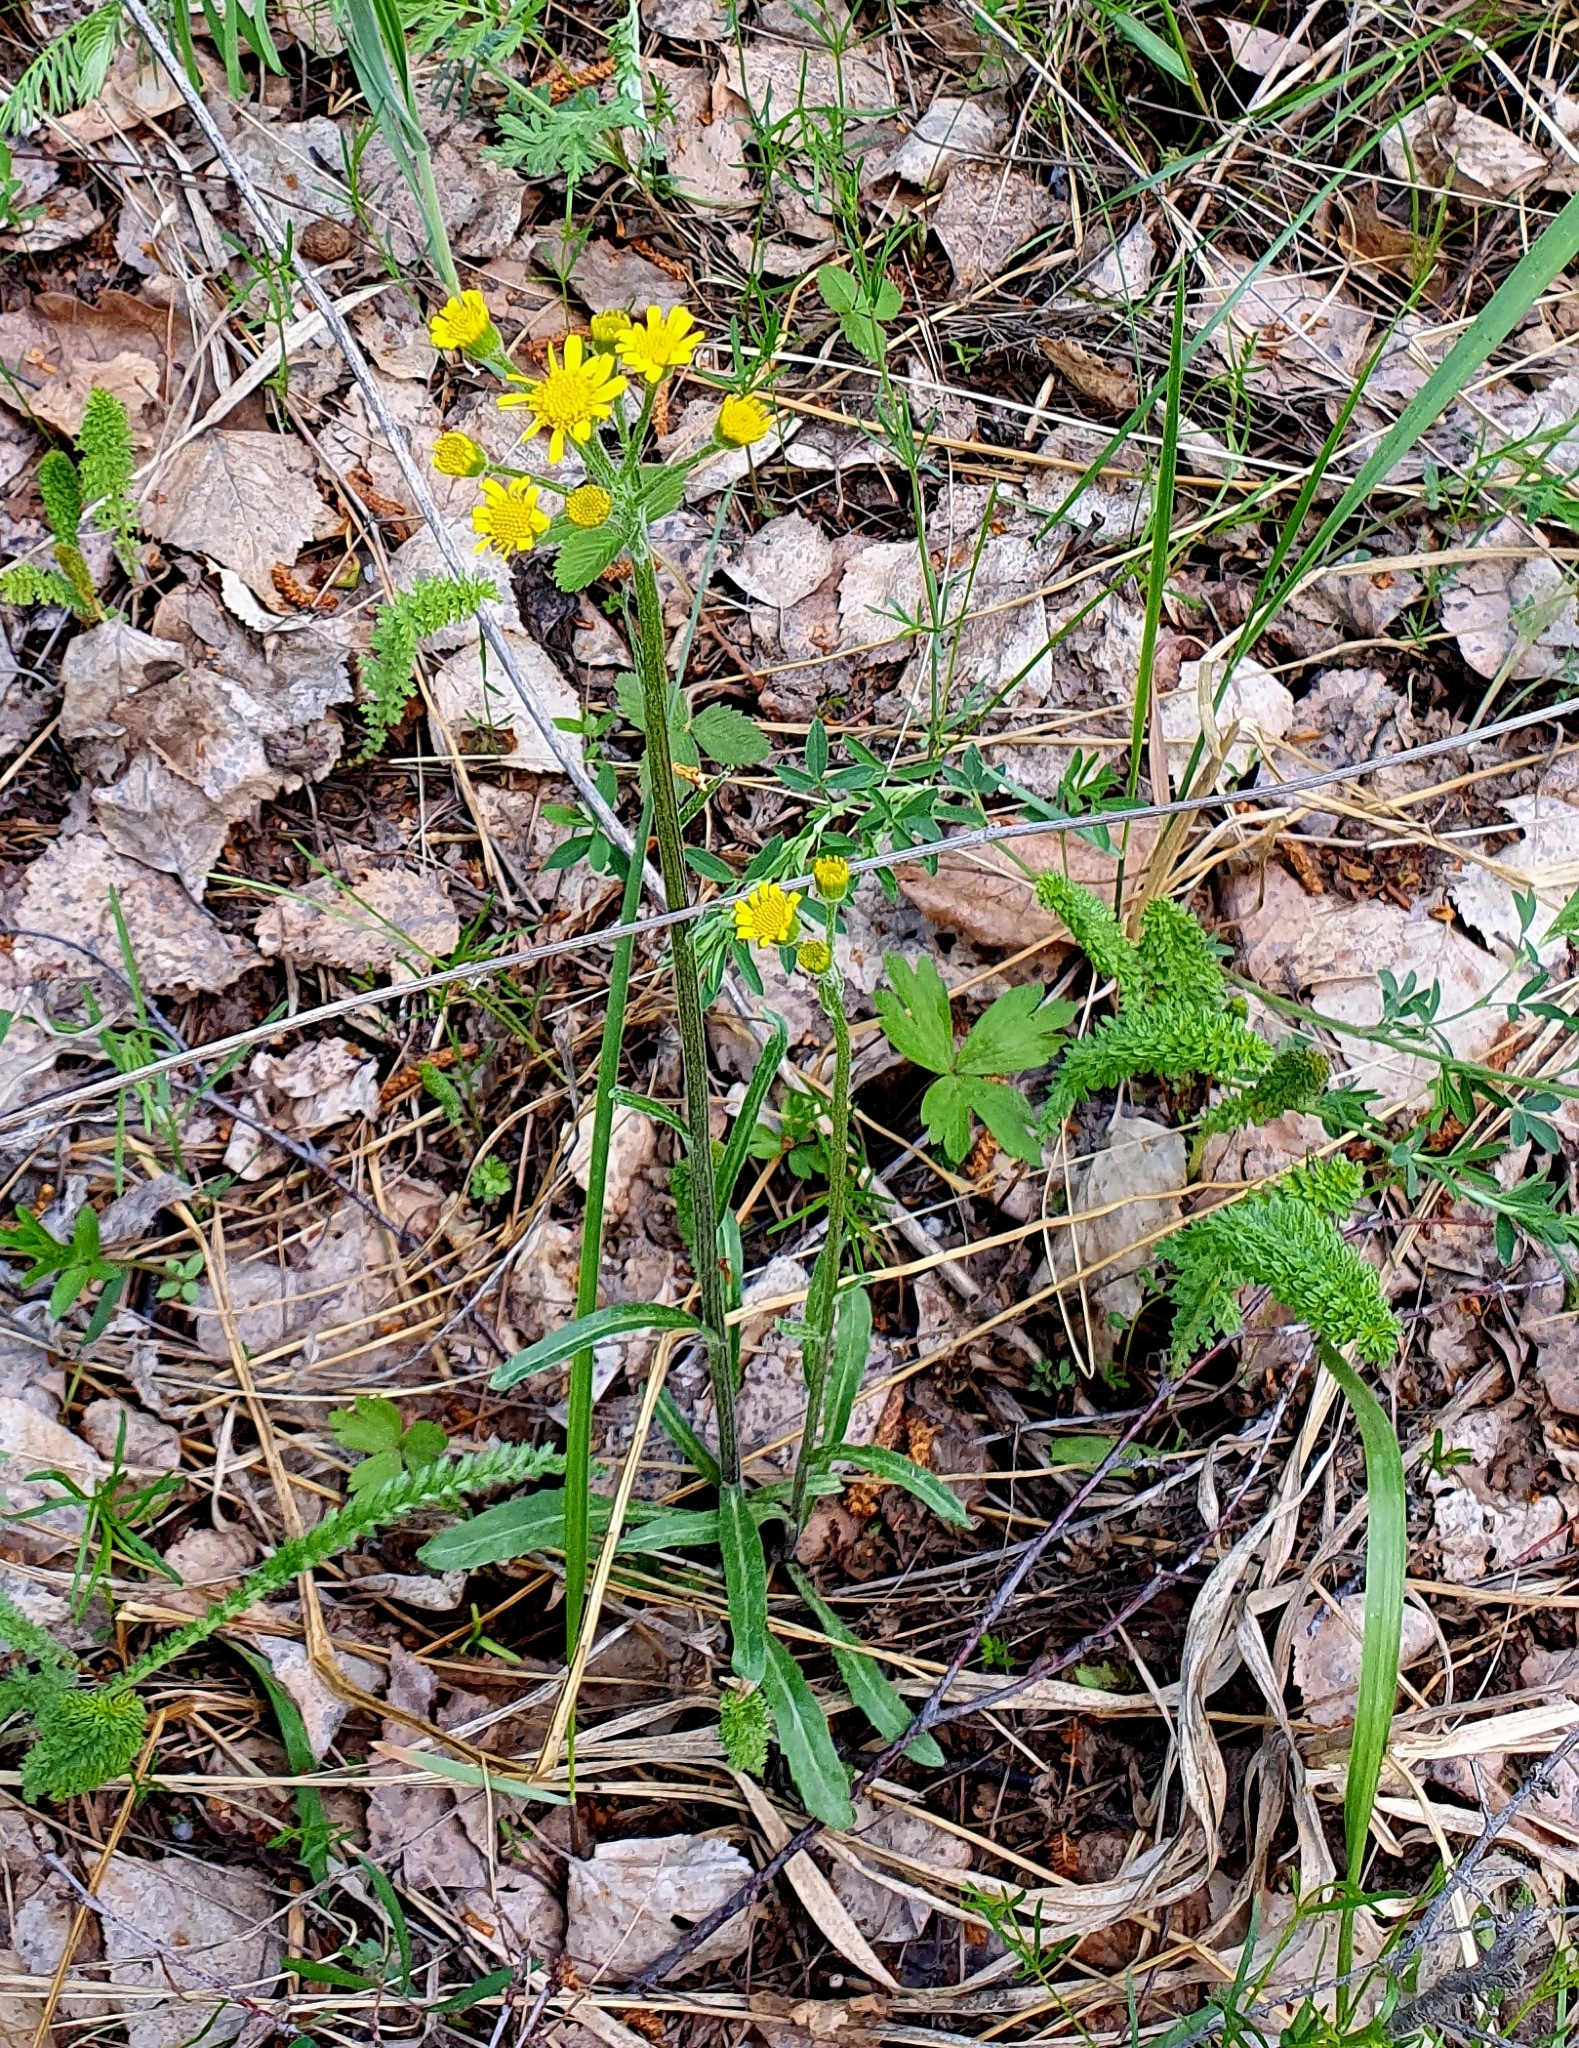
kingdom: Plantae
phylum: Tracheophyta
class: Magnoliopsida
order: Asterales
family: Asteraceae
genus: Tephroseris
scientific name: Tephroseris integrifolia
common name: Field fleawort
